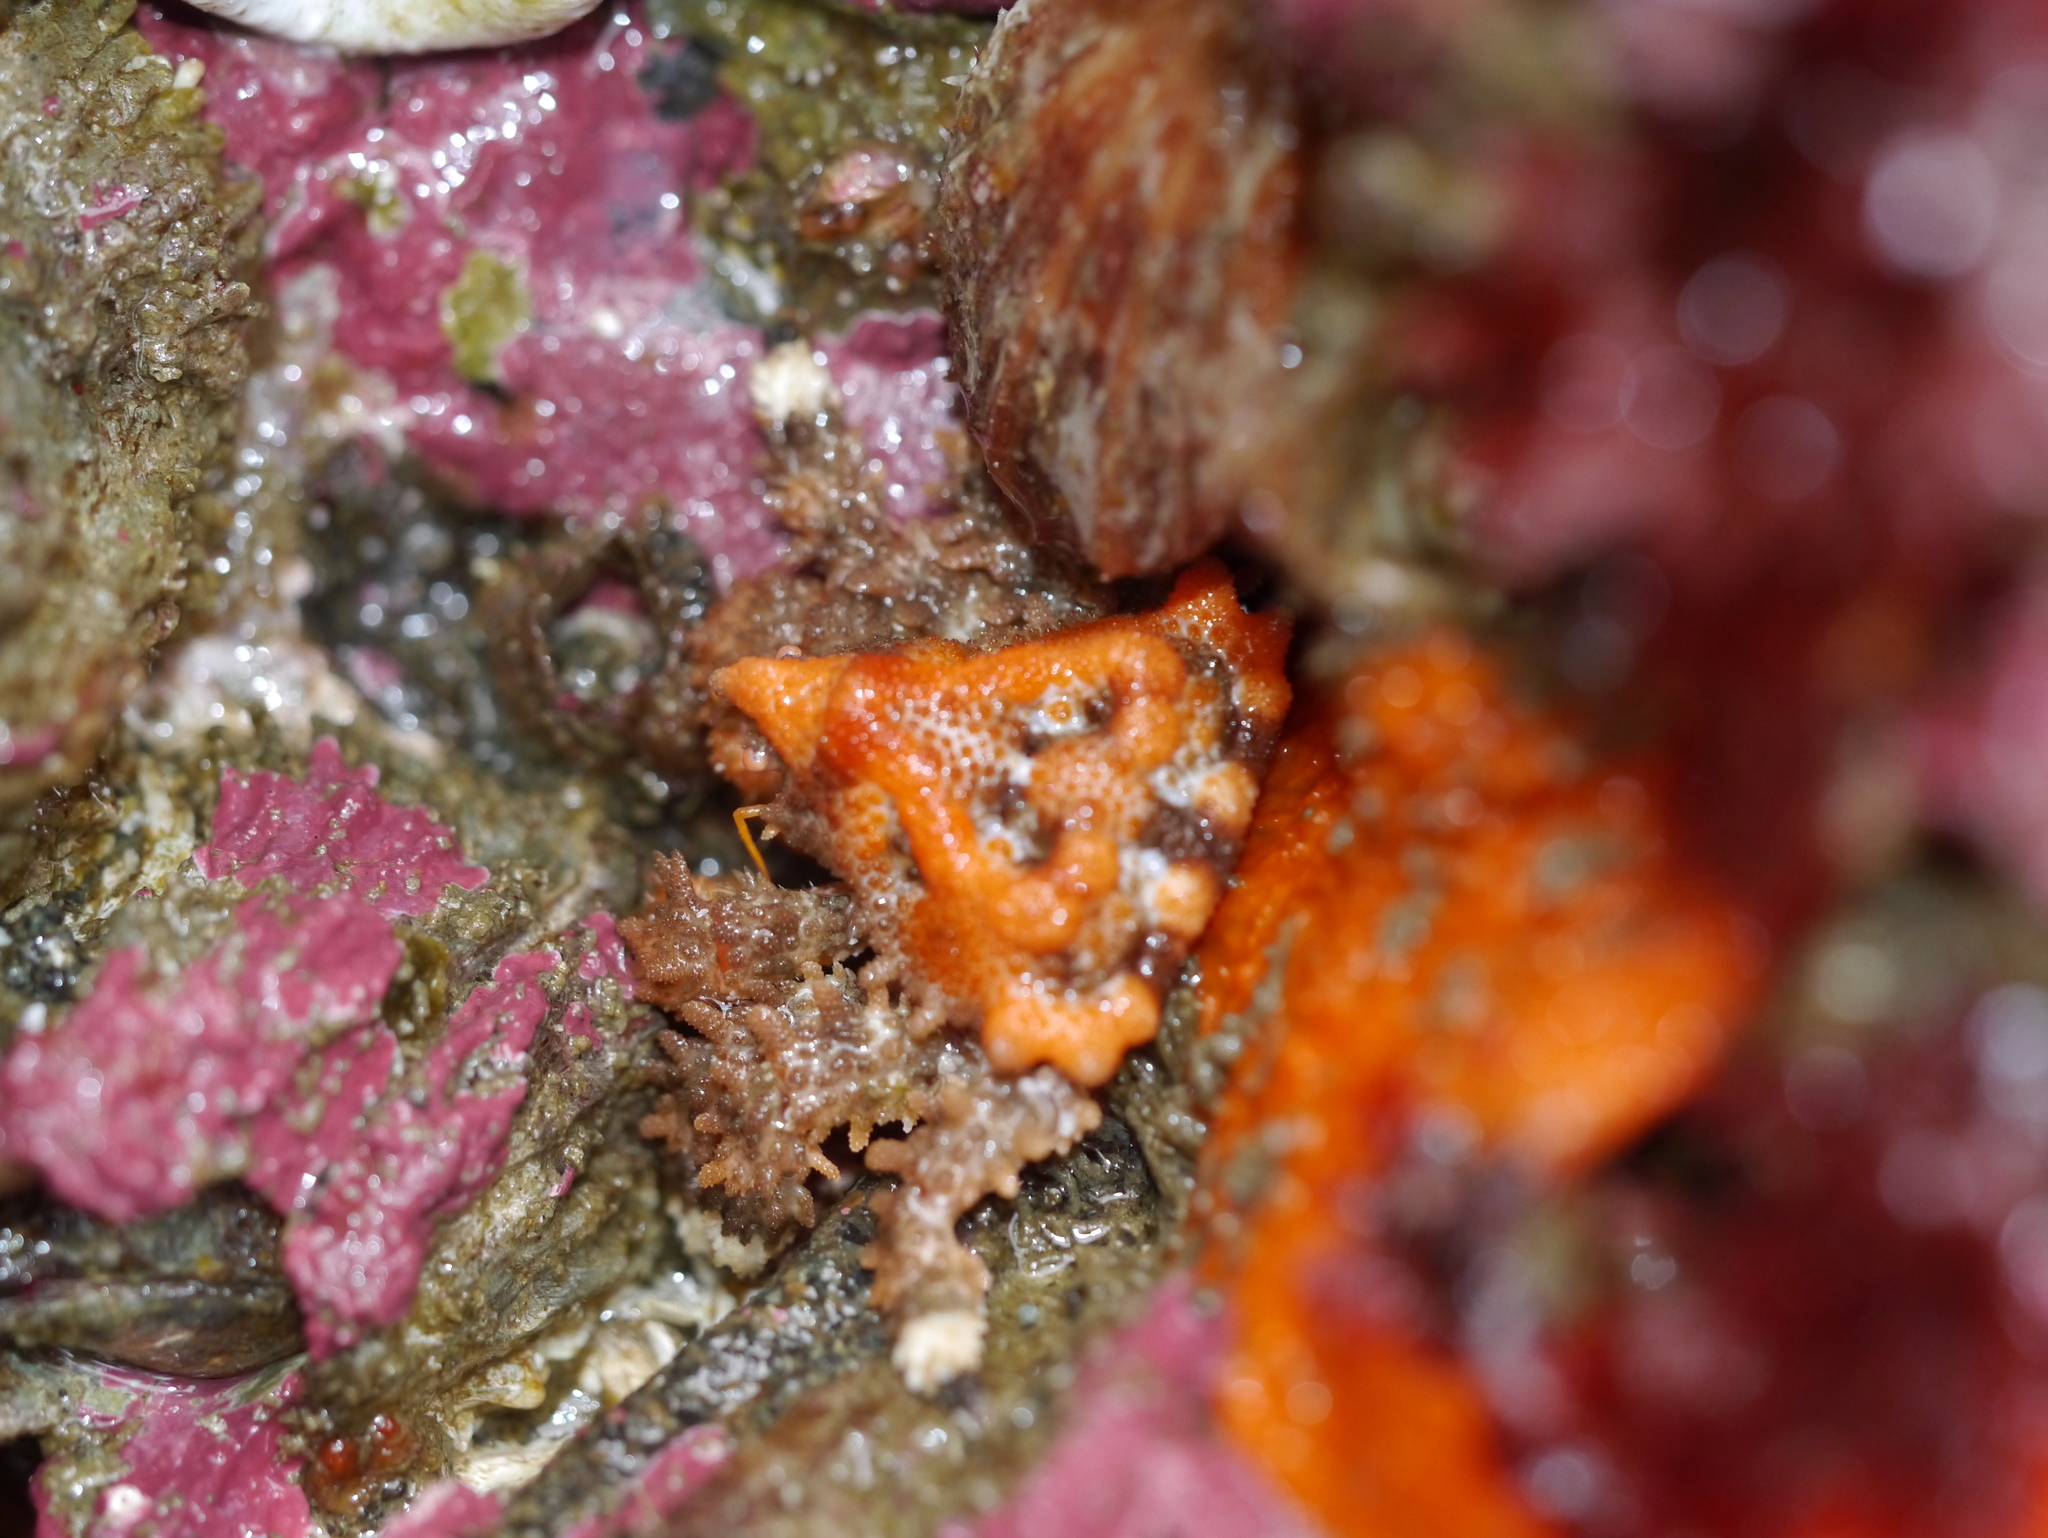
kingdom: Animalia
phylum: Arthropoda
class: Malacostraca
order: Decapoda
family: Lithodidae
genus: Phyllolithodes
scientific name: Phyllolithodes papillosus
